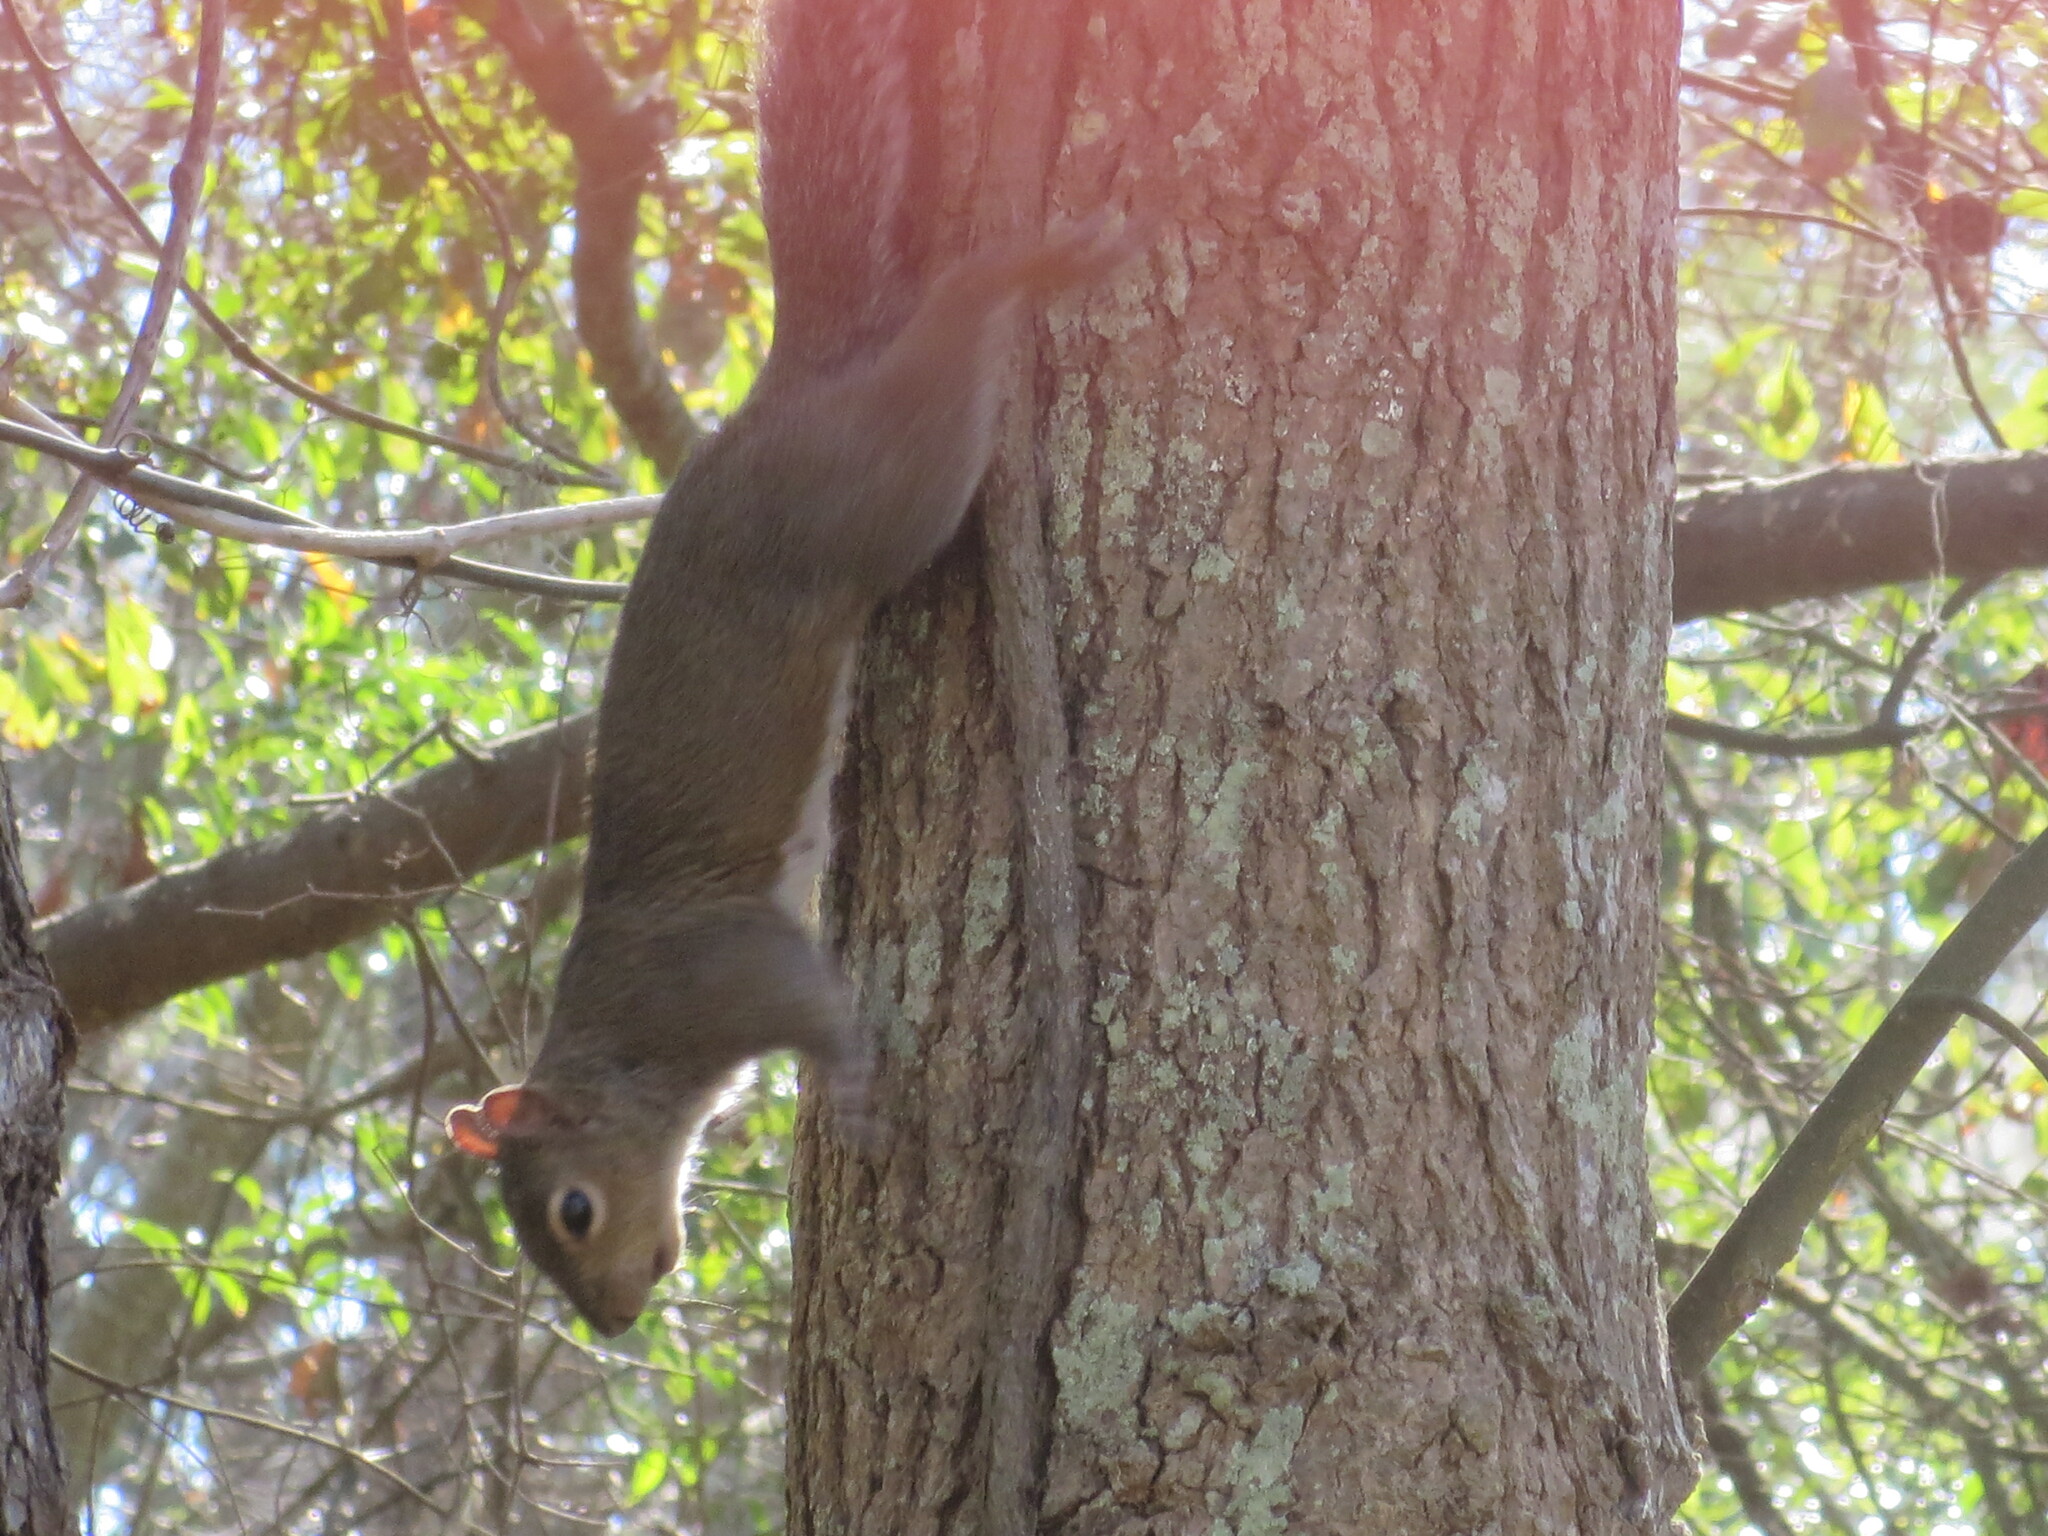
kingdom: Animalia
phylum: Chordata
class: Mammalia
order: Rodentia
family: Sciuridae
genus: Sciurus
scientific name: Sciurus carolinensis
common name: Eastern gray squirrel
